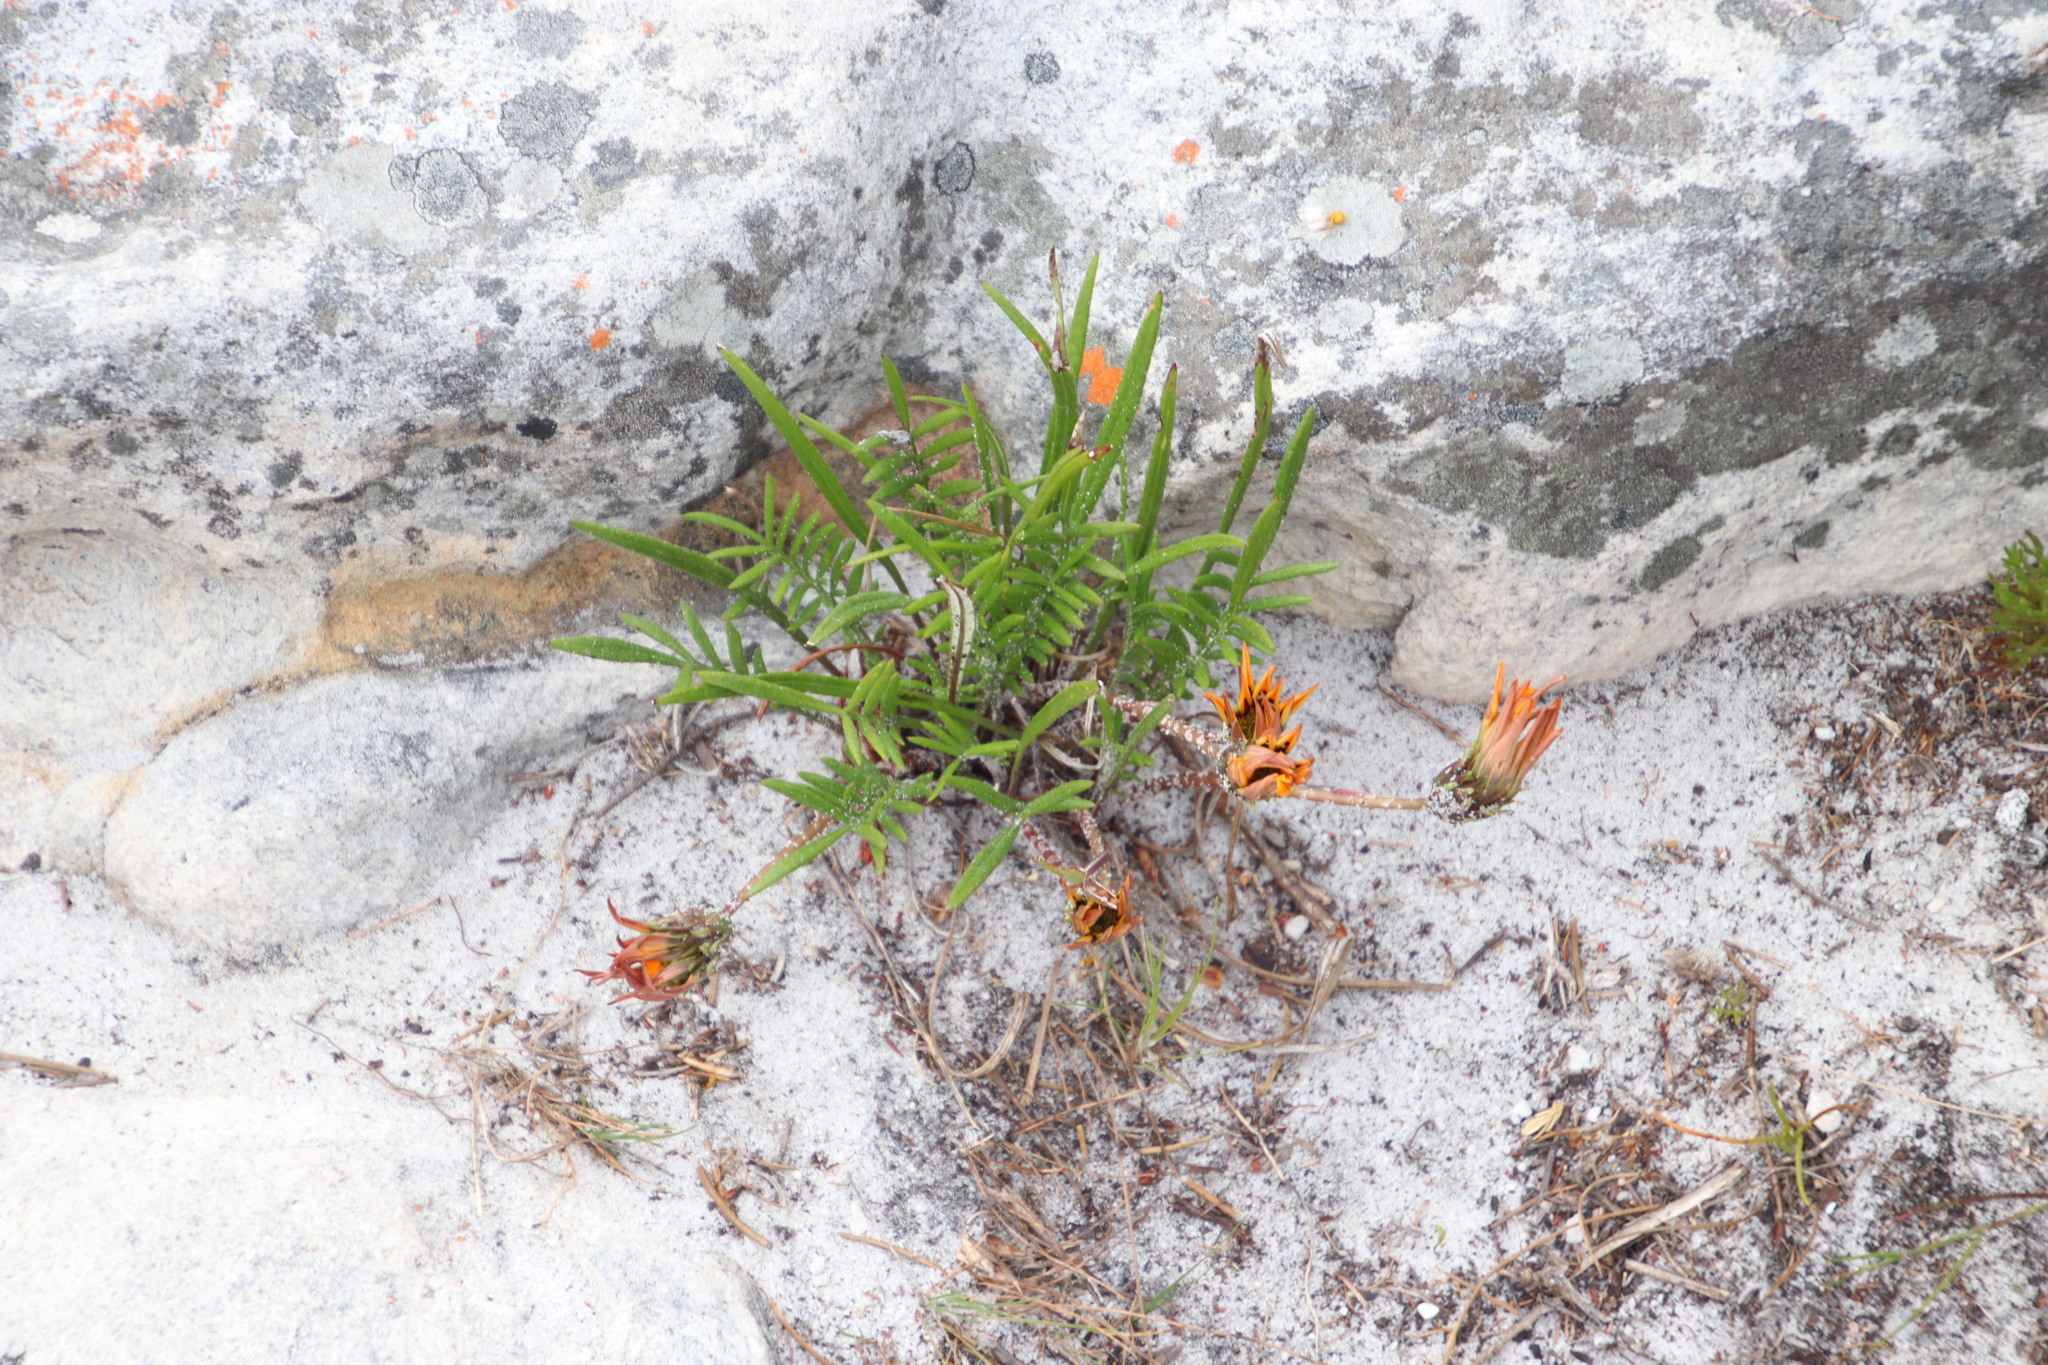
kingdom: Plantae
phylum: Tracheophyta
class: Magnoliopsida
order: Asterales
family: Asteraceae
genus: Gazania
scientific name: Gazania pectinata
